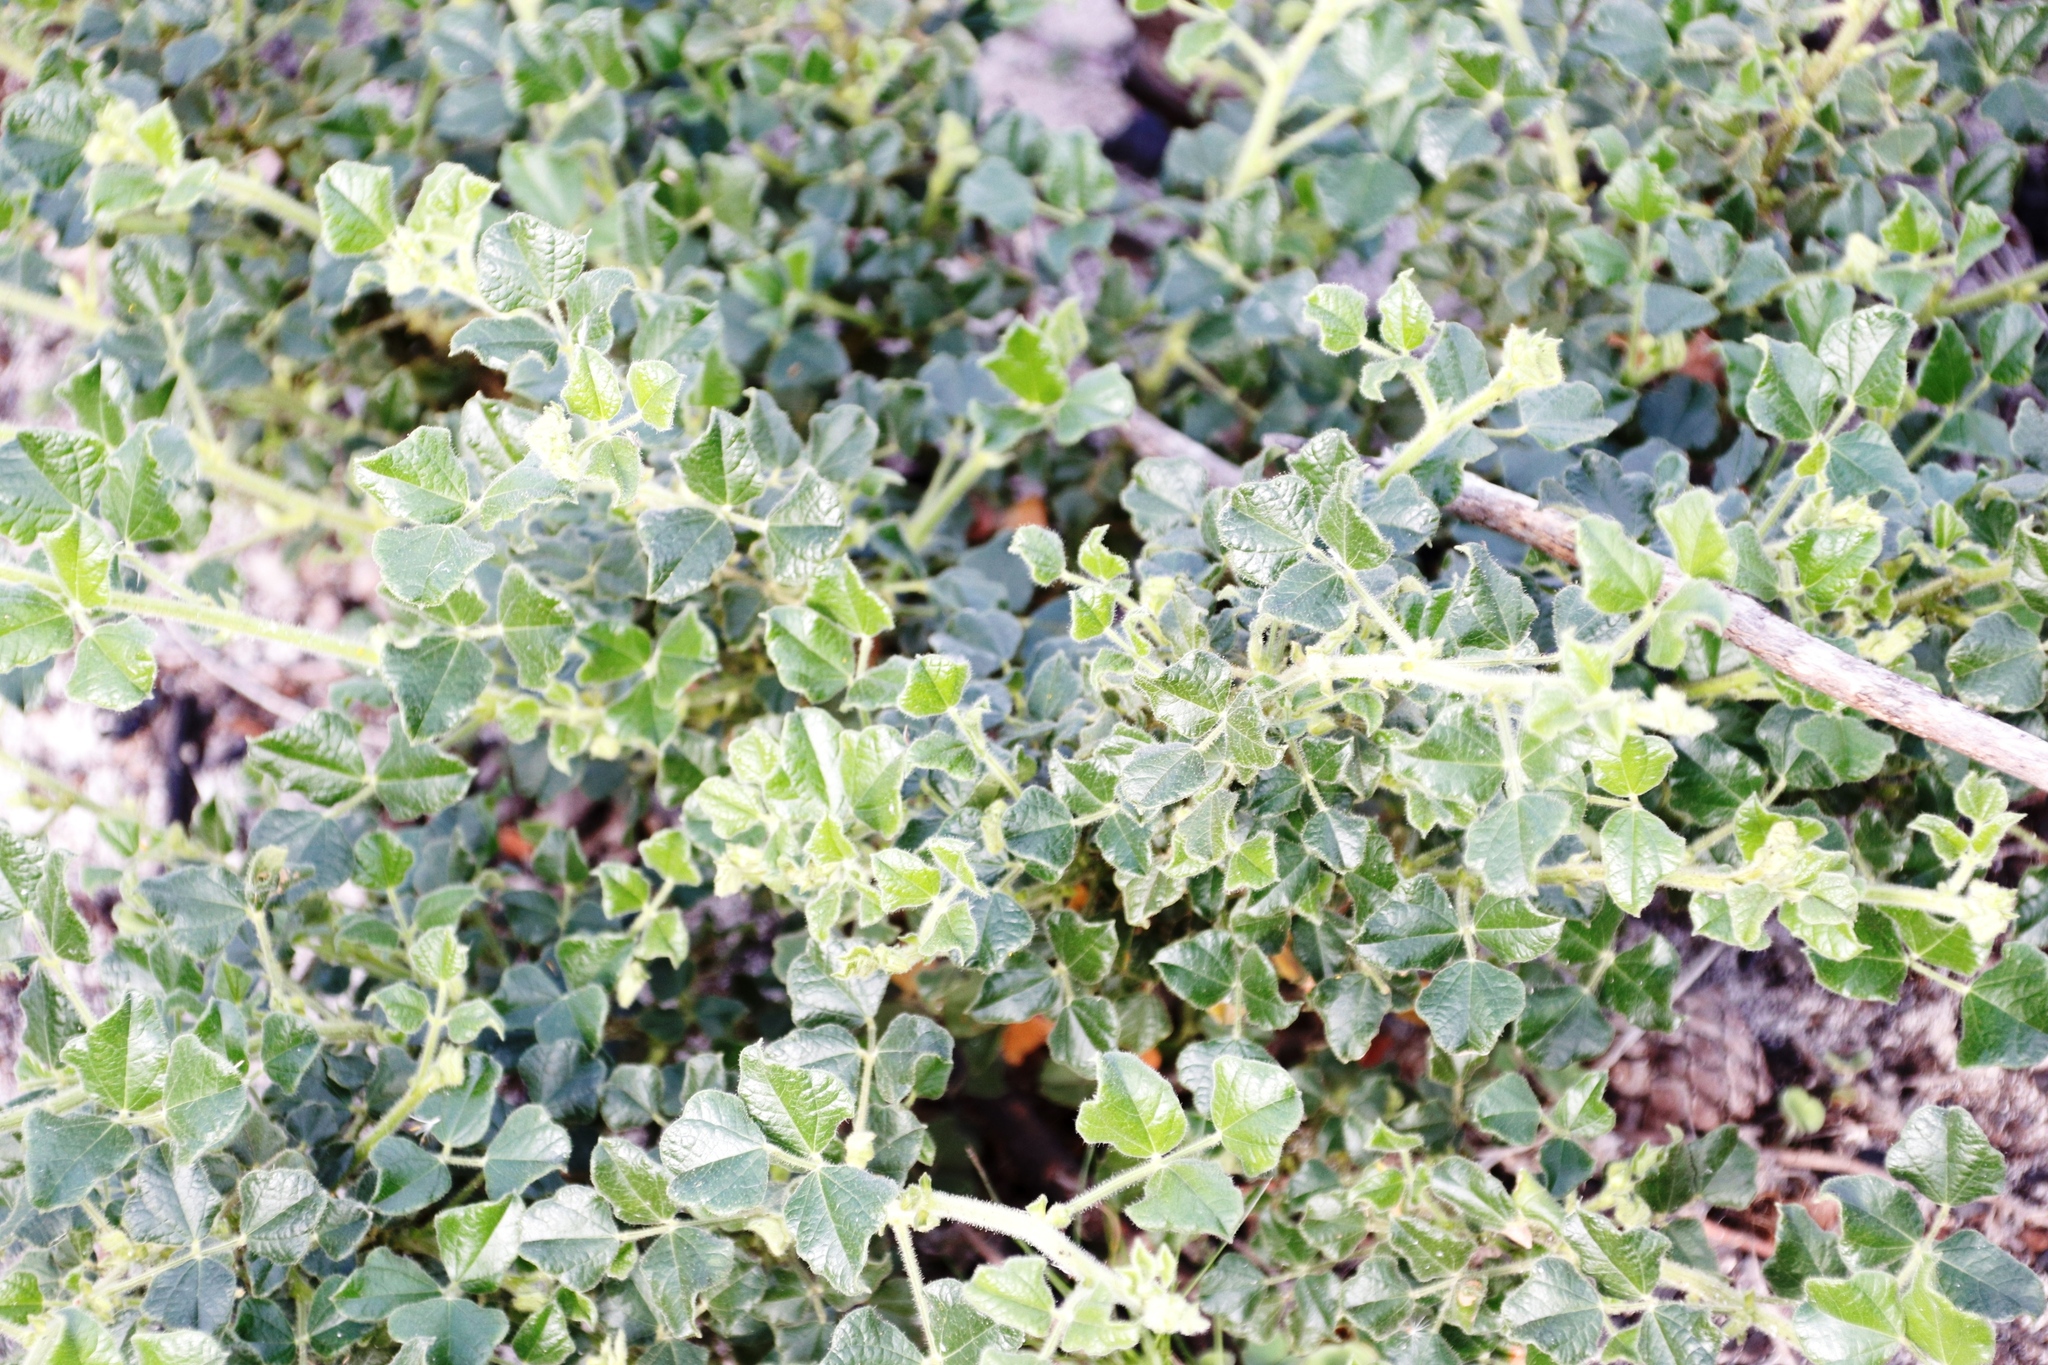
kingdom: Plantae
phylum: Tracheophyta
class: Magnoliopsida
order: Fabales
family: Fabaceae
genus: Bolusafra
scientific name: Bolusafra bituminosa
